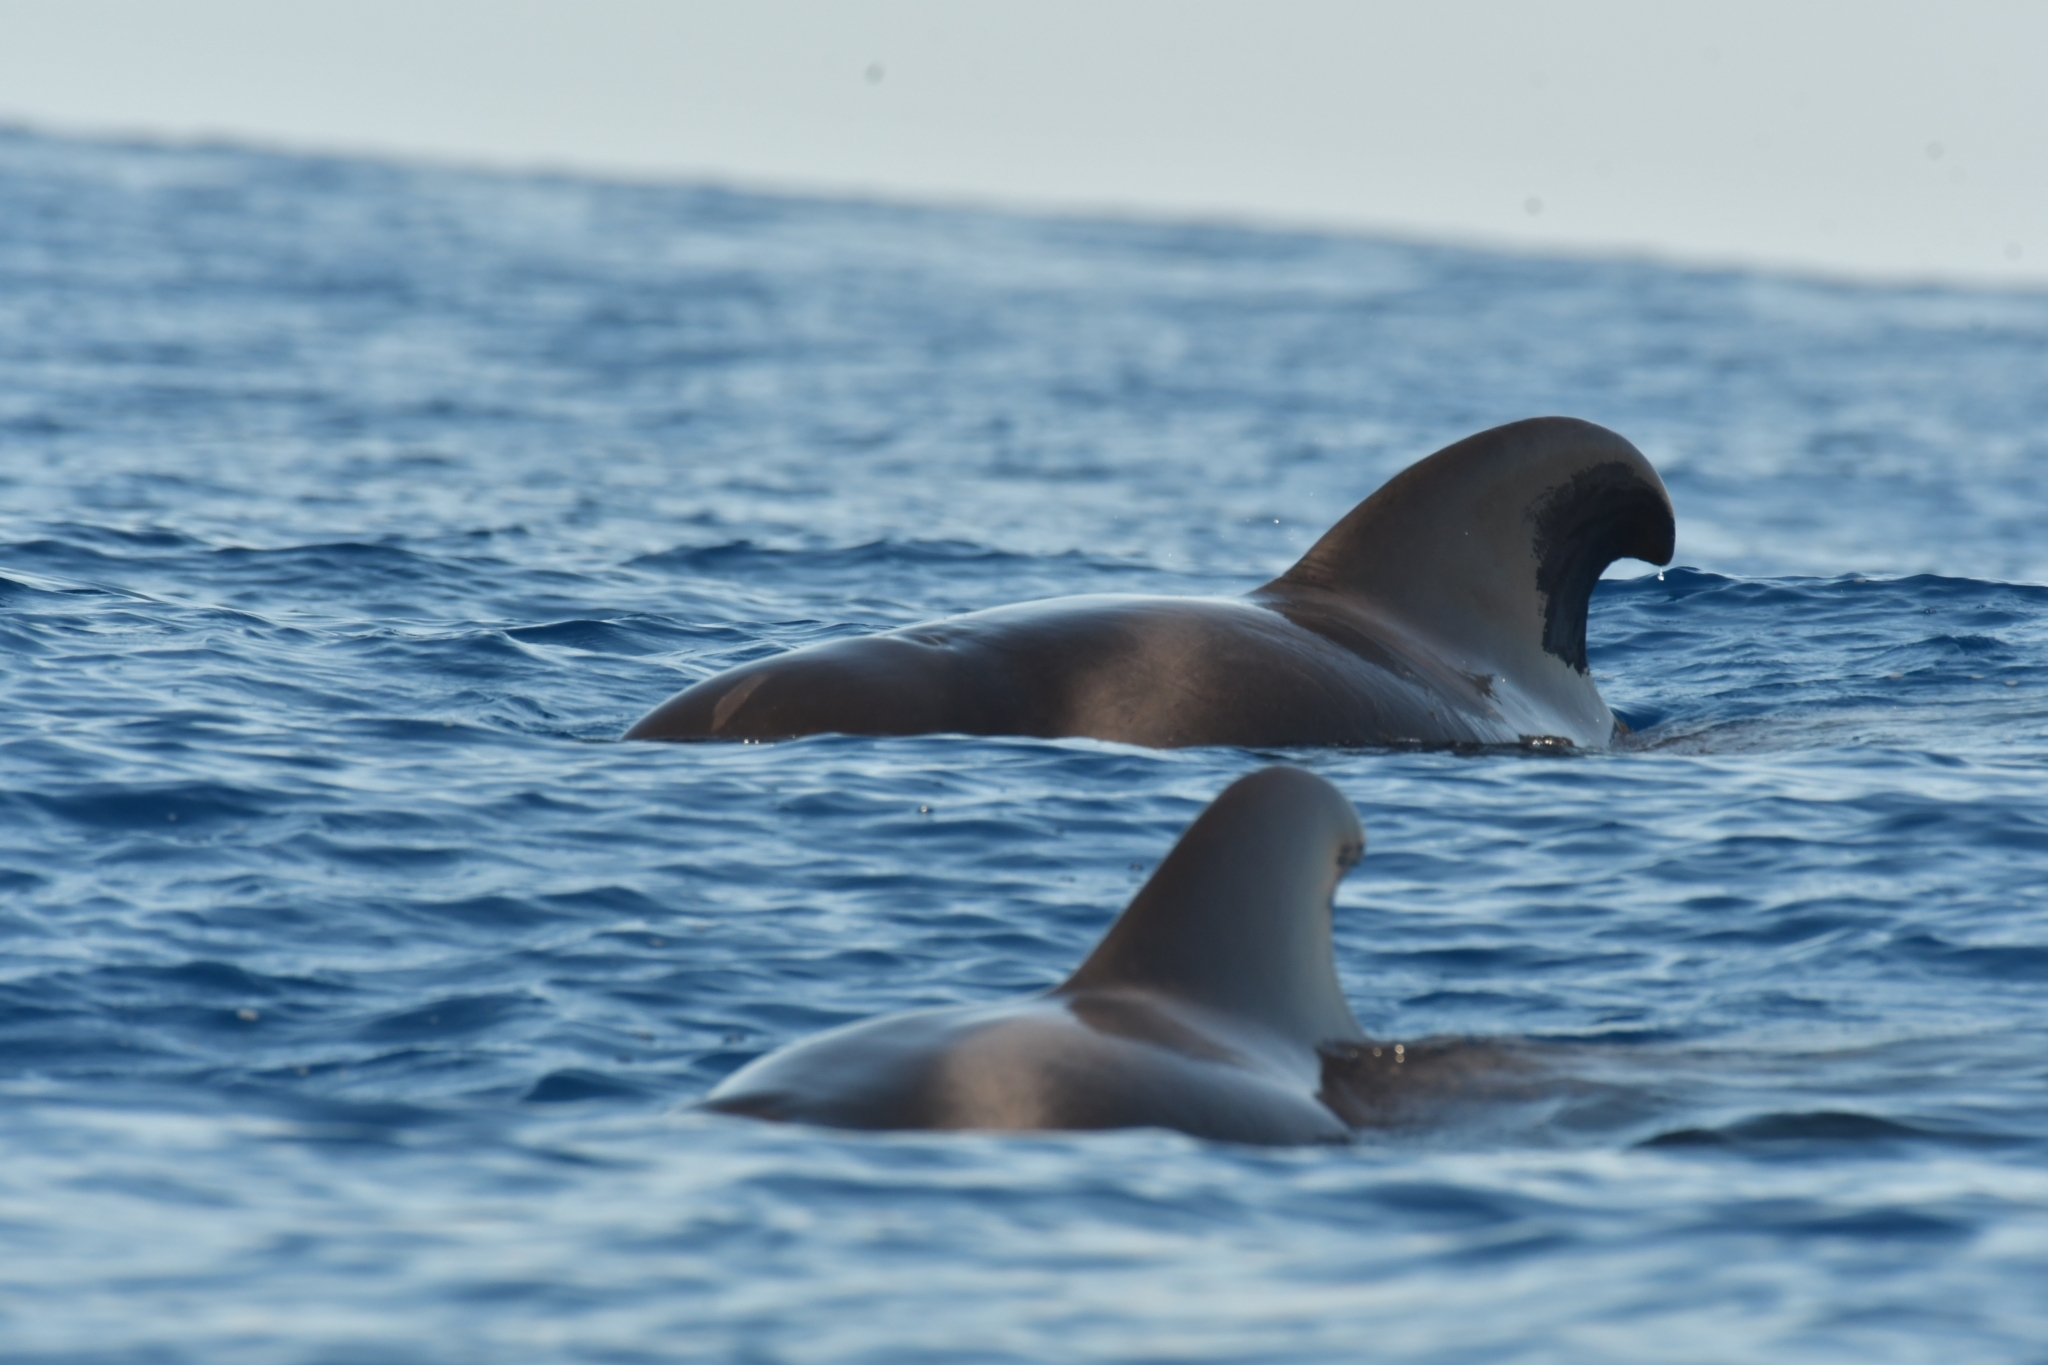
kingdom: Animalia
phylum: Chordata
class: Mammalia
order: Cetacea
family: Delphinidae
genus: Globicephala
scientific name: Globicephala macrorhynchus
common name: Short-finned pilot whale
